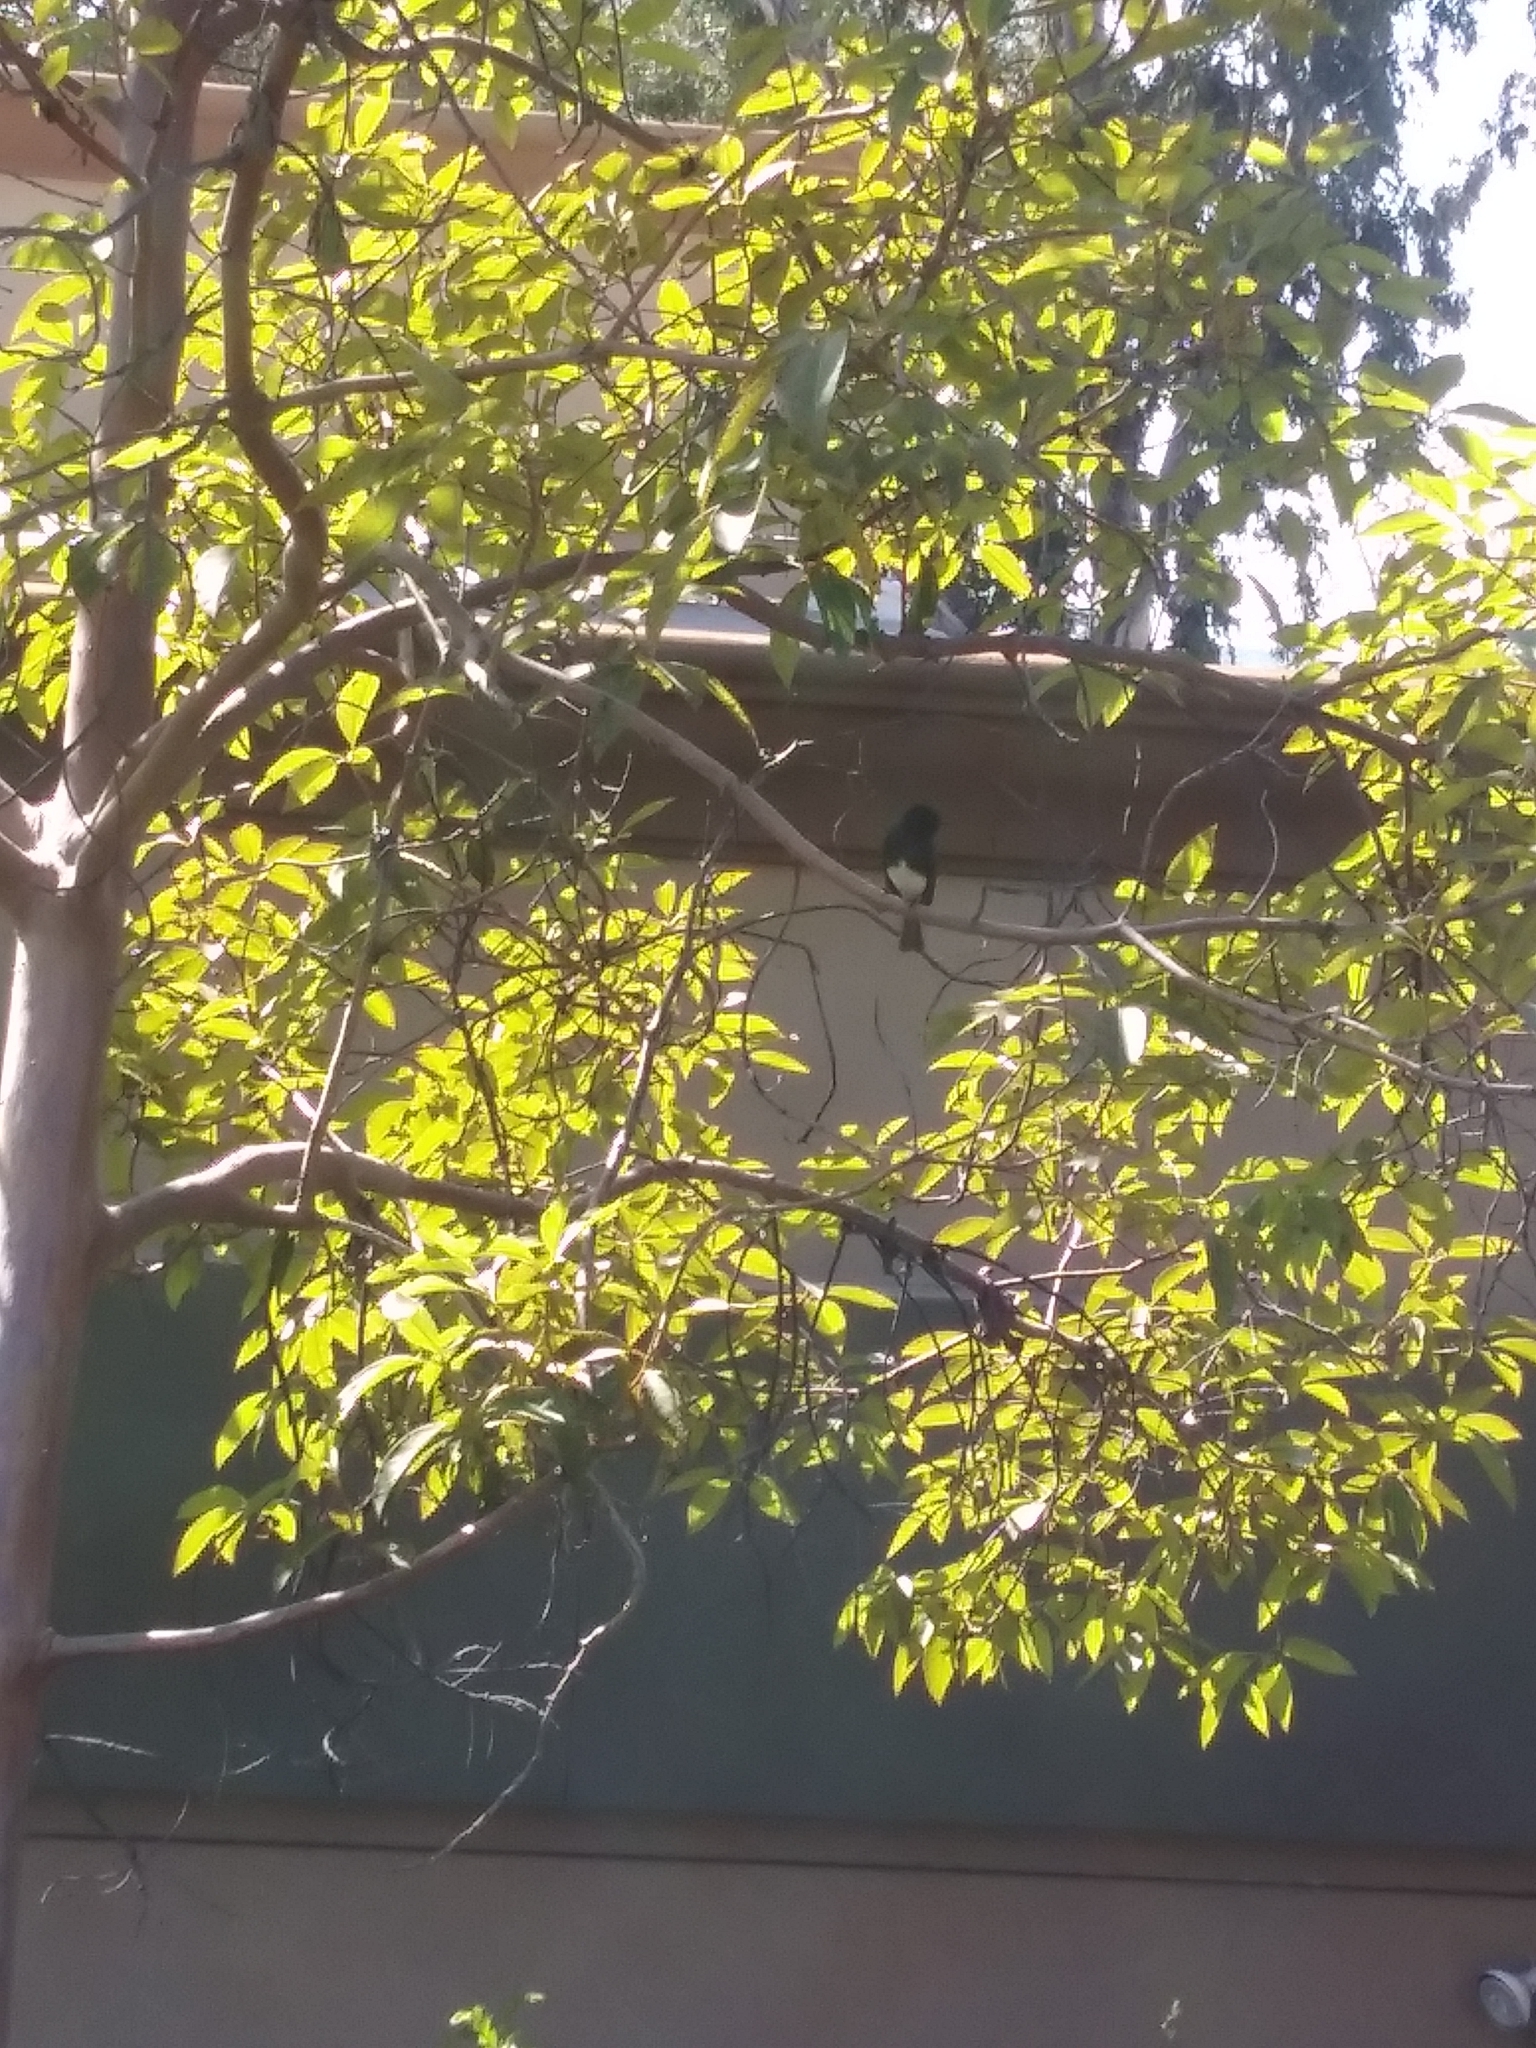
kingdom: Animalia
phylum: Chordata
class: Aves
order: Passeriformes
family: Tyrannidae
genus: Sayornis
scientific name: Sayornis nigricans
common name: Black phoebe
